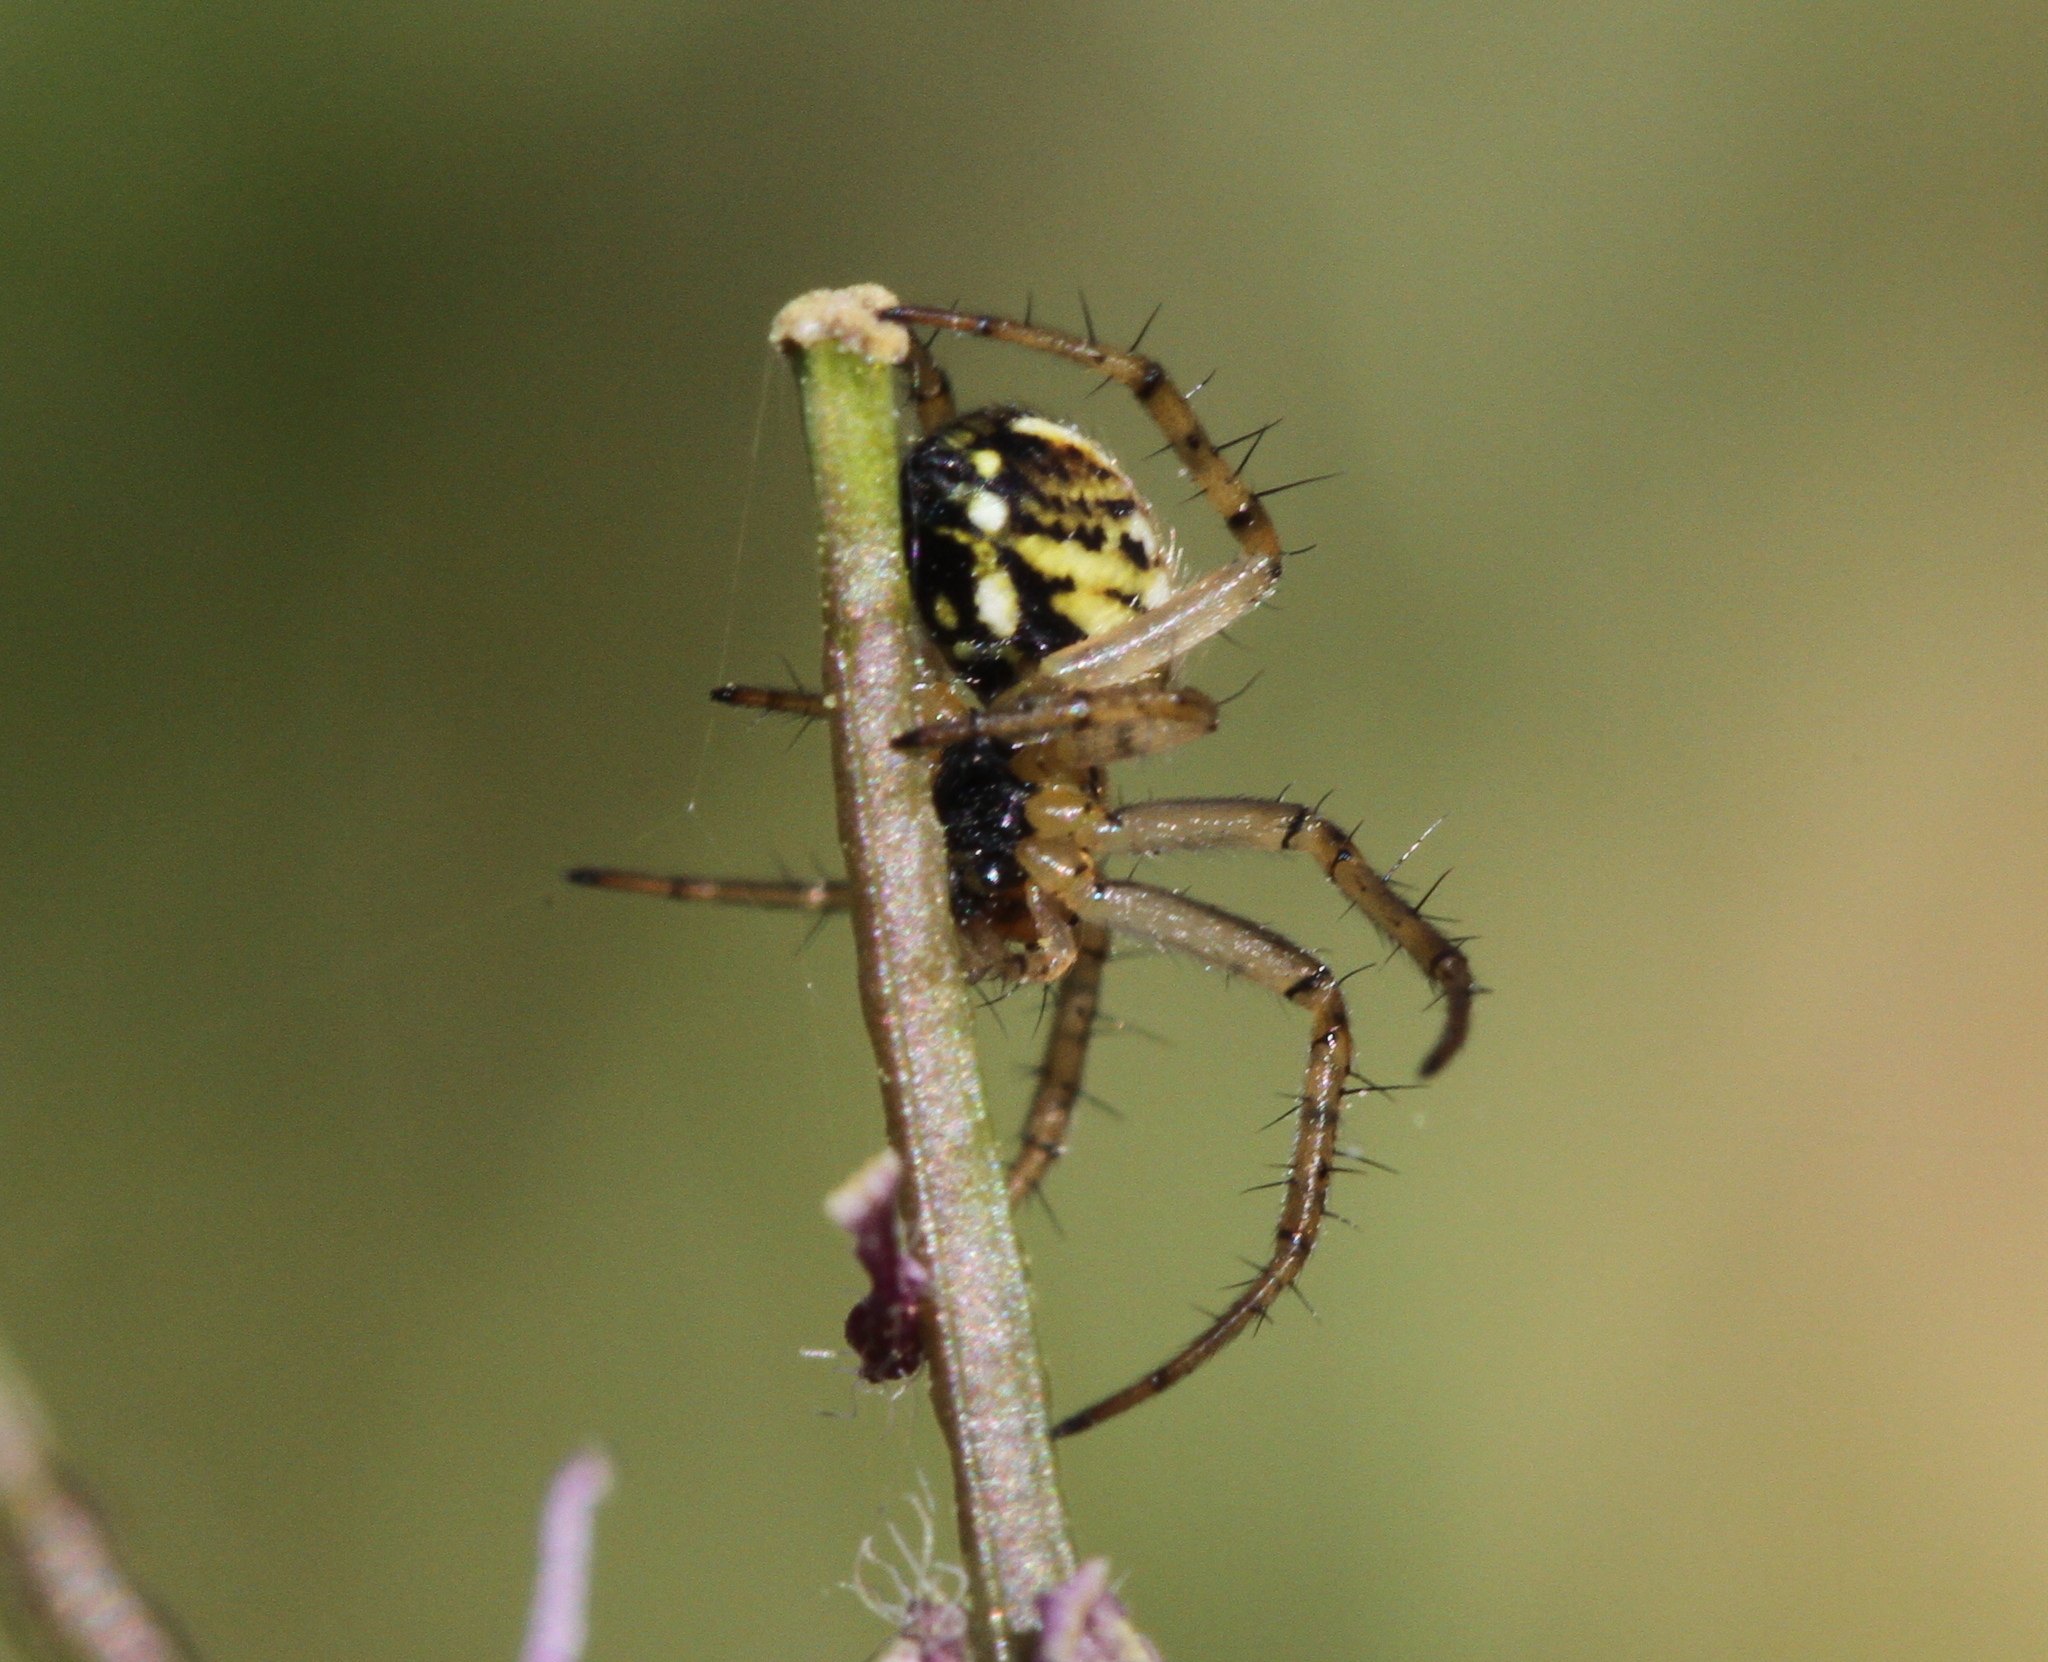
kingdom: Animalia
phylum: Arthropoda
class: Arachnida
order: Araneae
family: Araneidae
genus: Mangora
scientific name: Mangora acalypha
